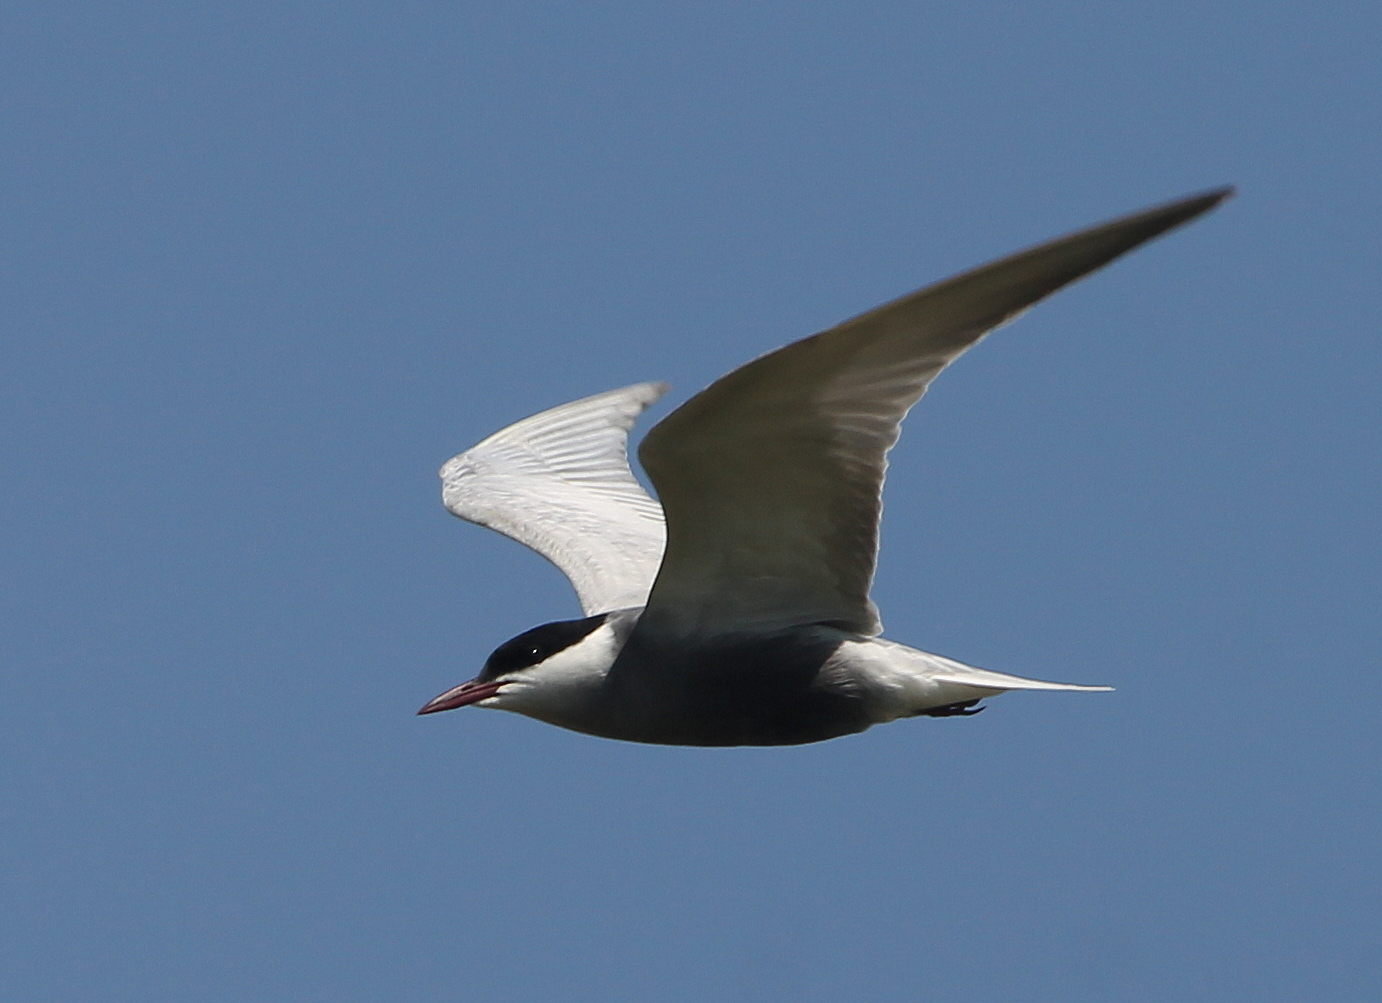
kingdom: Animalia
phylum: Chordata
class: Aves
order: Charadriiformes
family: Laridae
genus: Chlidonias
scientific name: Chlidonias hybrida
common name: Whiskered tern
